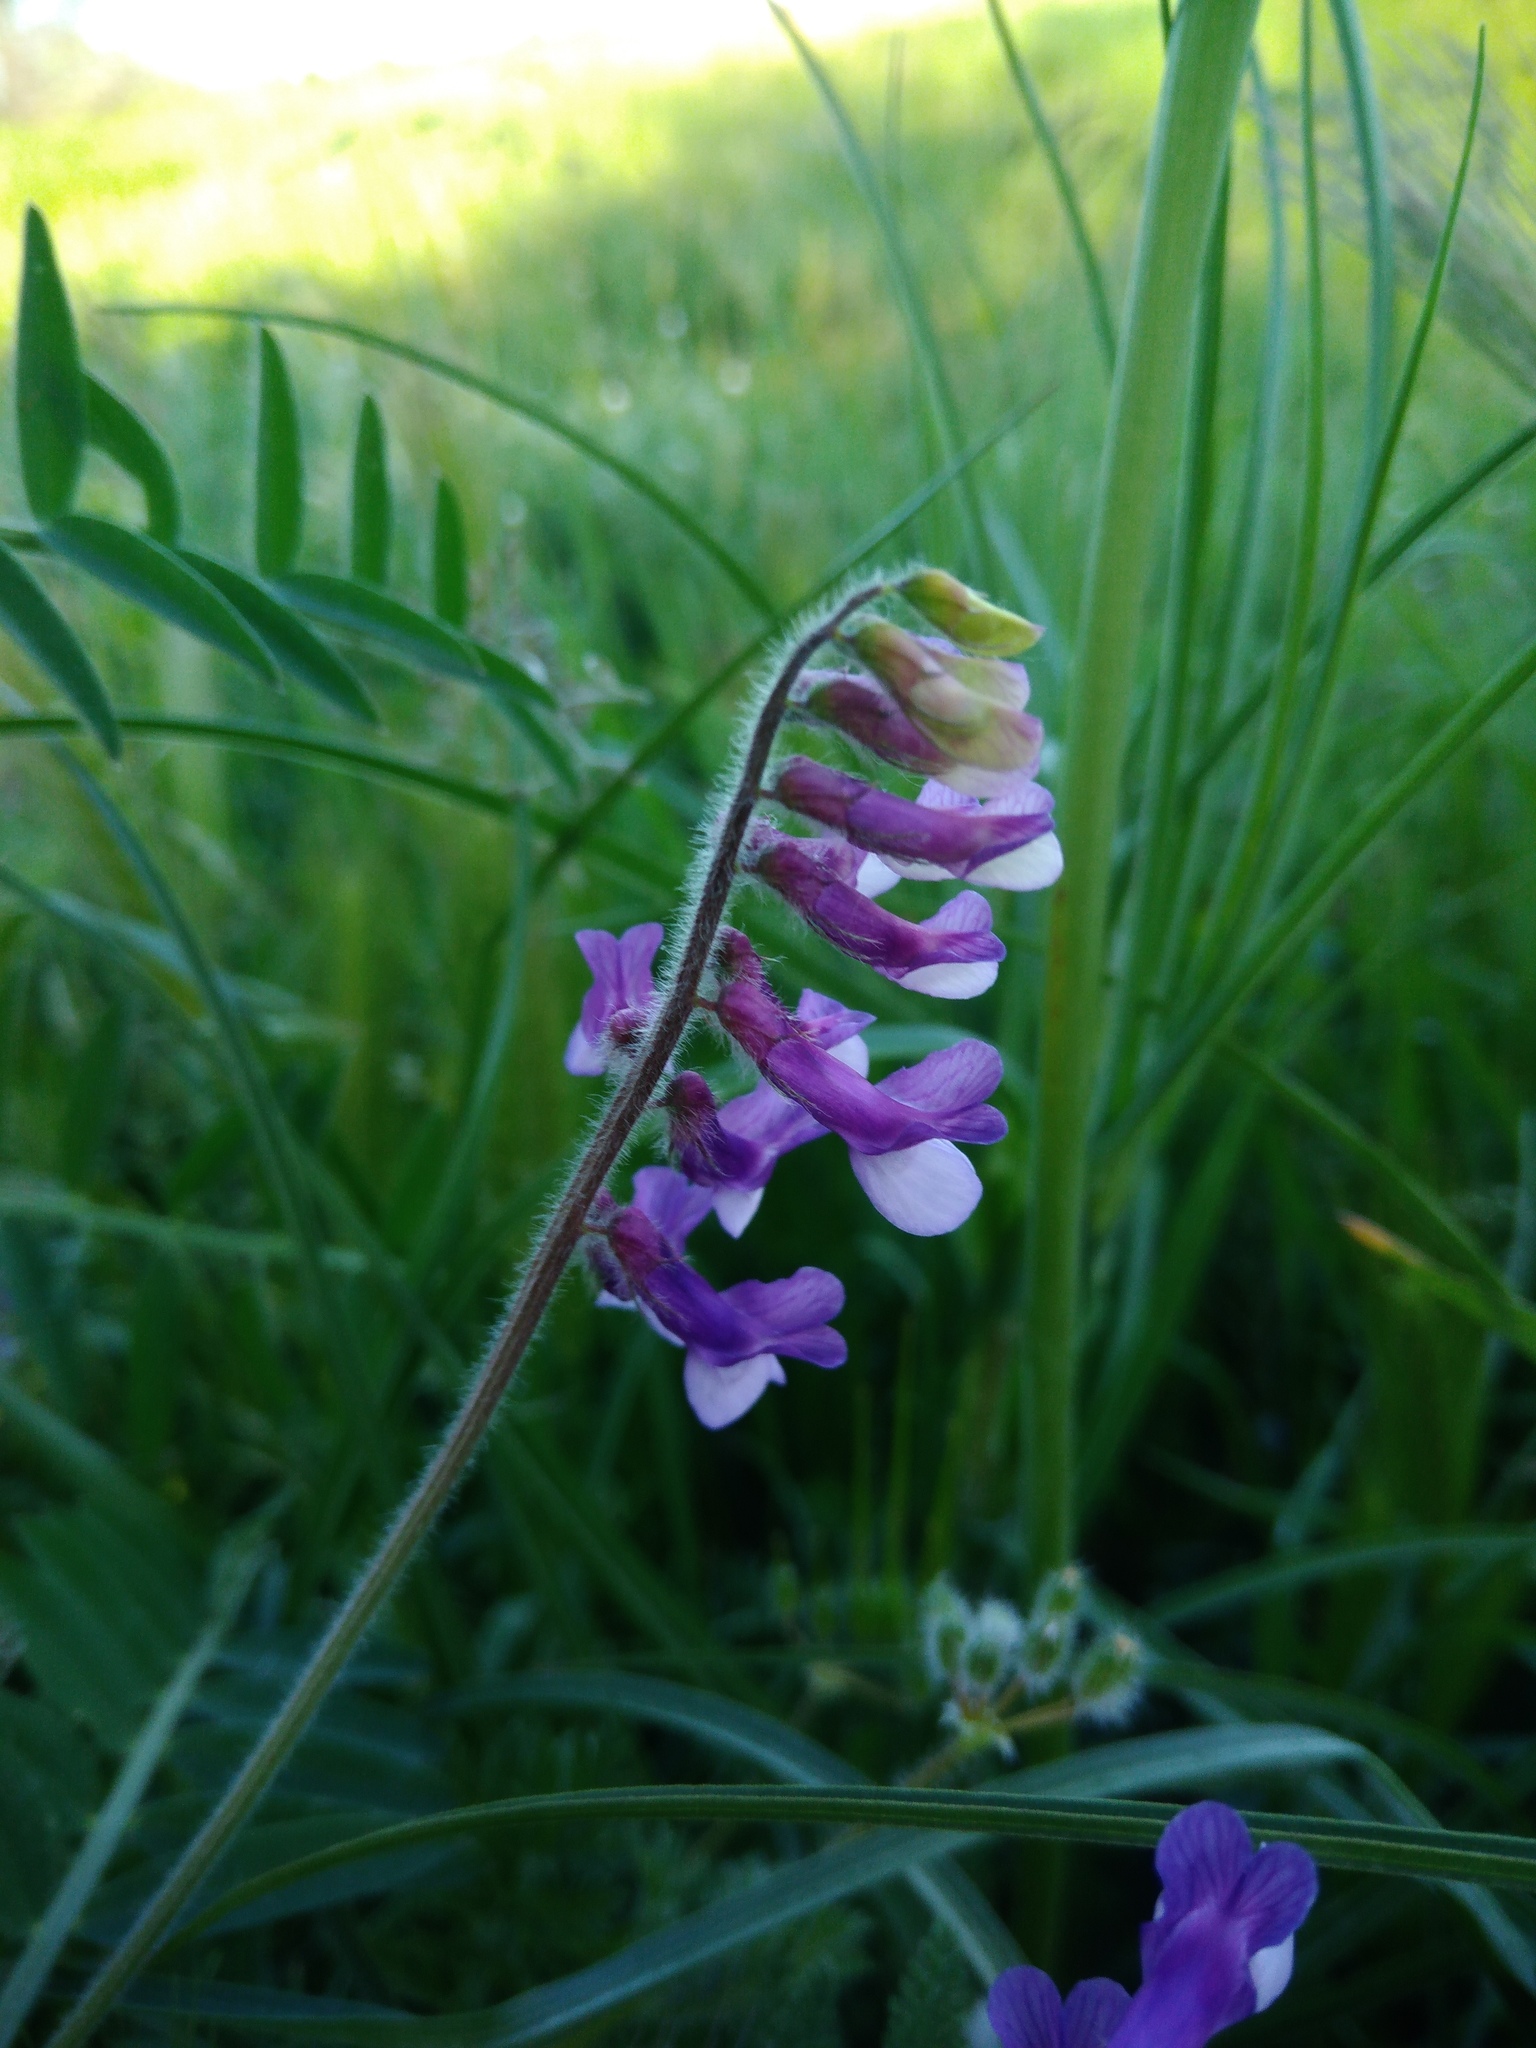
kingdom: Plantae
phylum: Tracheophyta
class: Magnoliopsida
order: Fabales
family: Fabaceae
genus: Vicia
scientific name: Vicia villosa
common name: Fodder vetch
